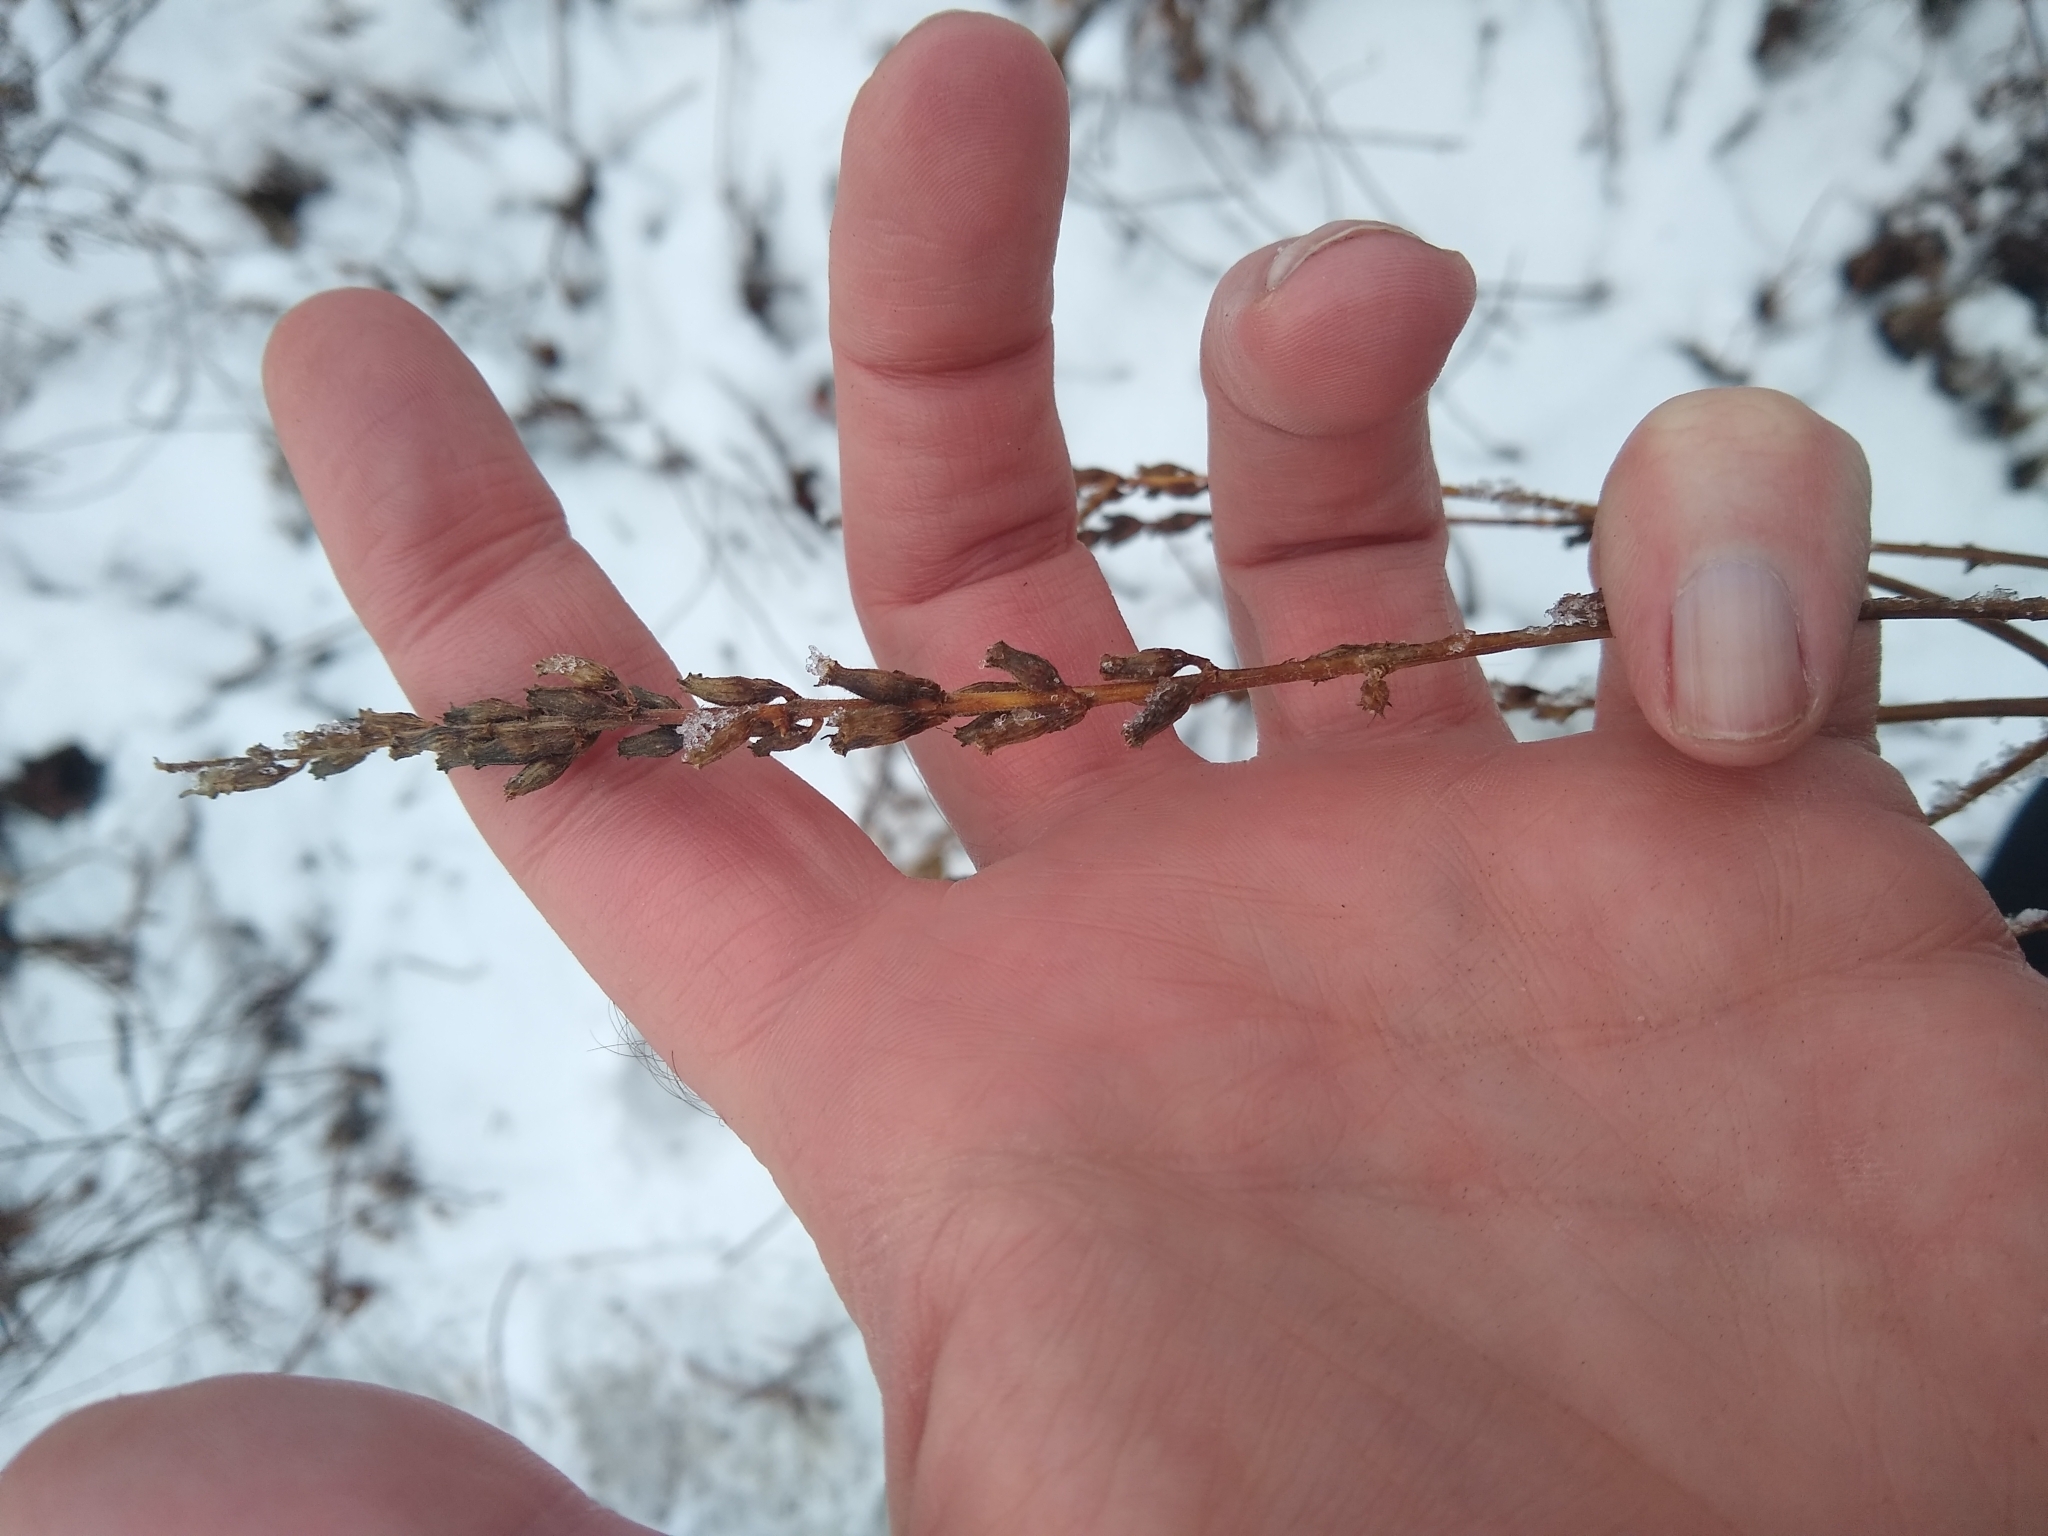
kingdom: Plantae
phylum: Tracheophyta
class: Magnoliopsida
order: Myrtales
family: Lythraceae
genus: Lythrum
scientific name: Lythrum salicaria
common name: Purple loosestrife
